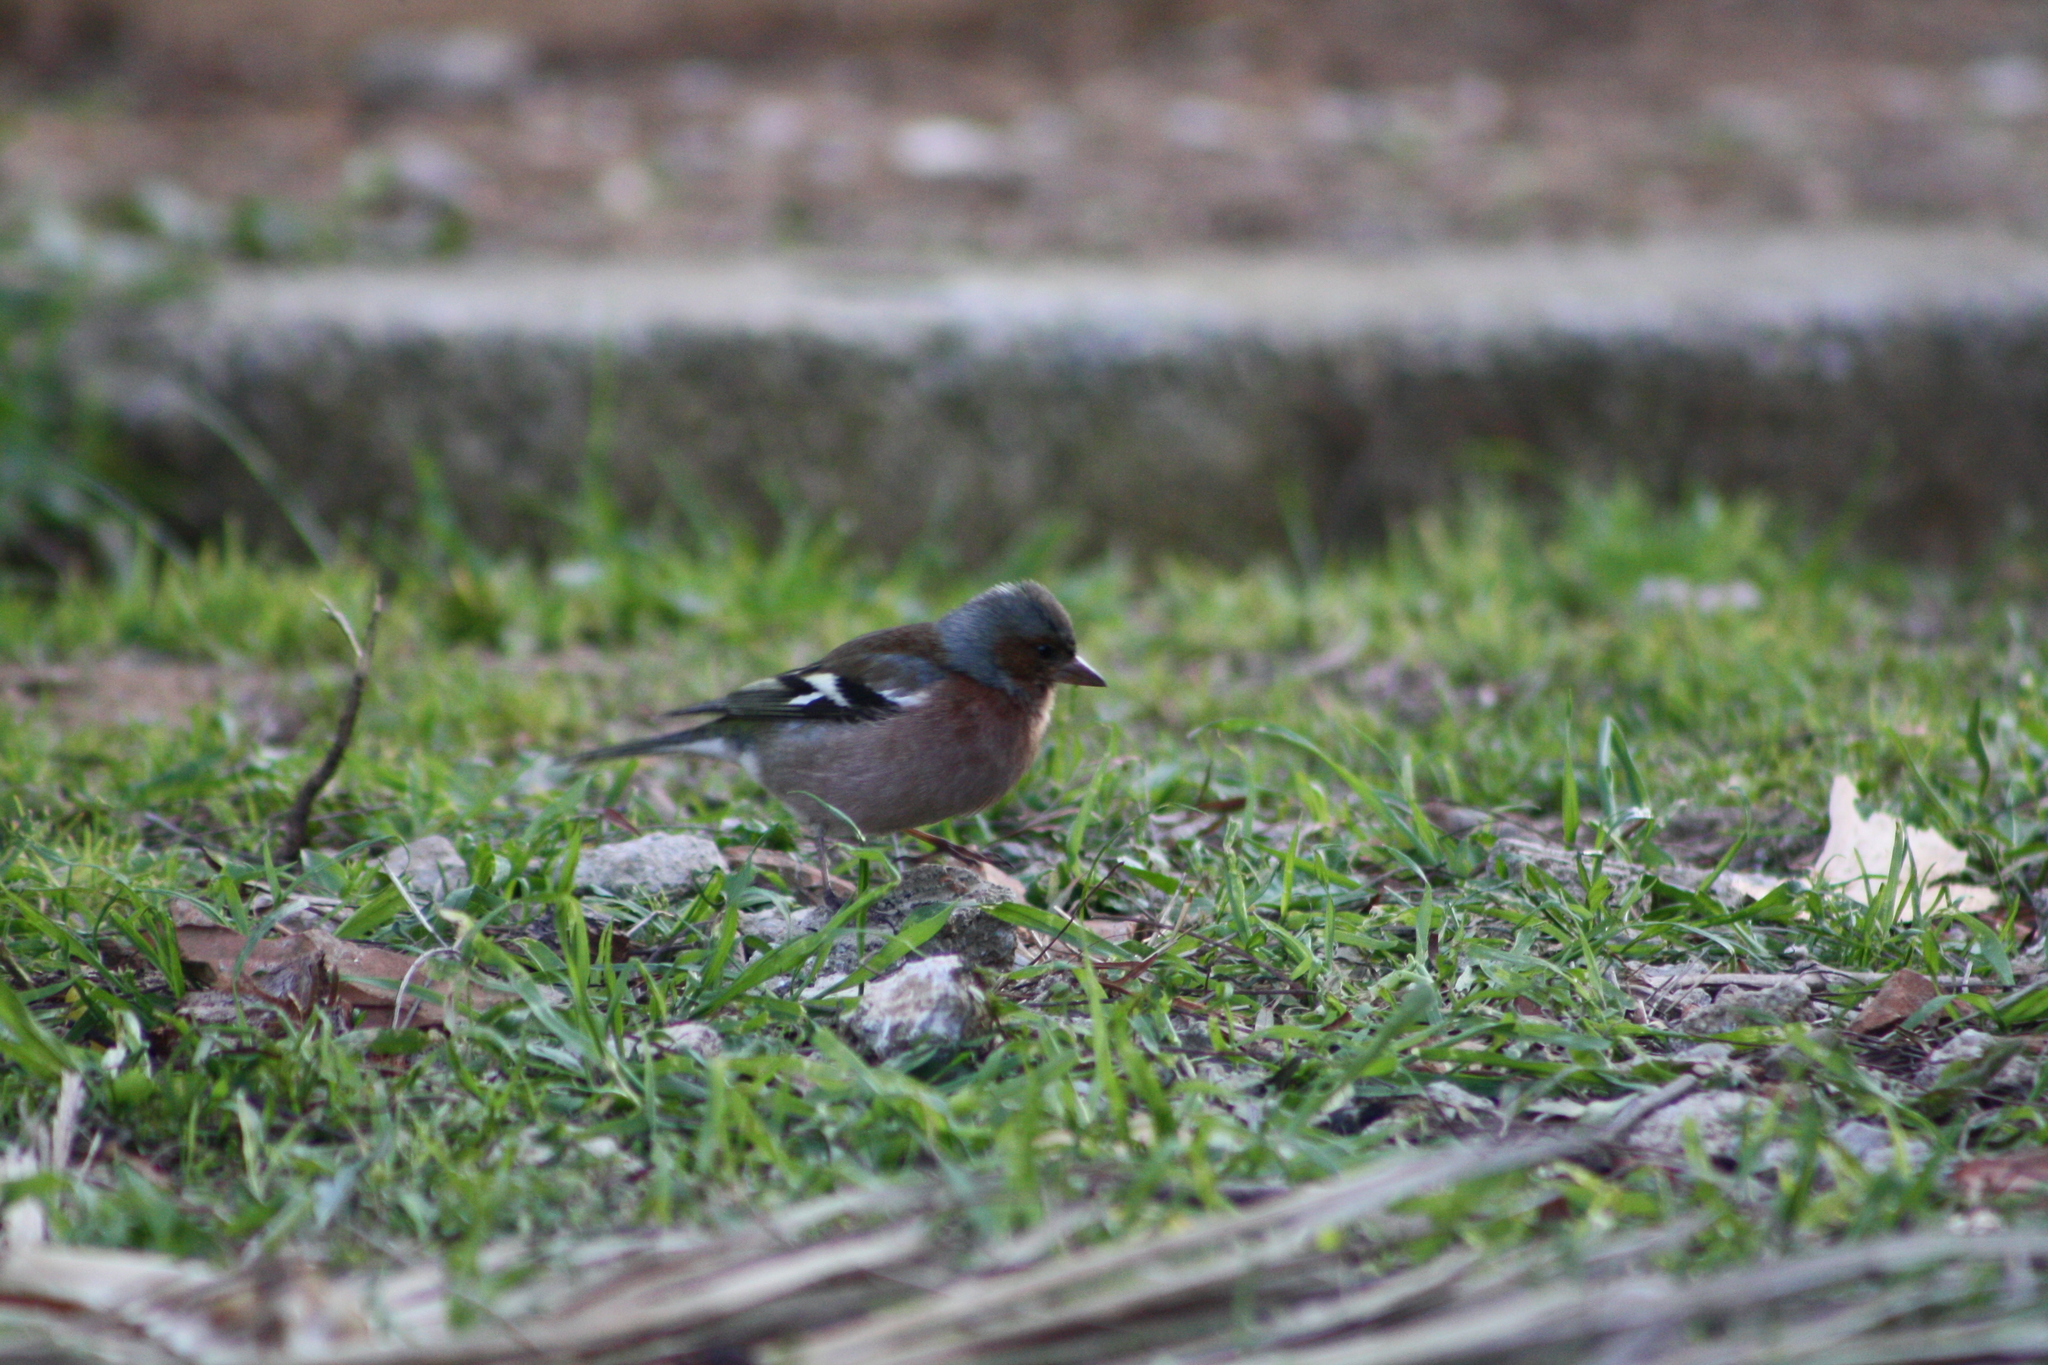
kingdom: Animalia
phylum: Chordata
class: Aves
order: Passeriformes
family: Fringillidae
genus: Fringilla
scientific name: Fringilla coelebs
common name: Common chaffinch
